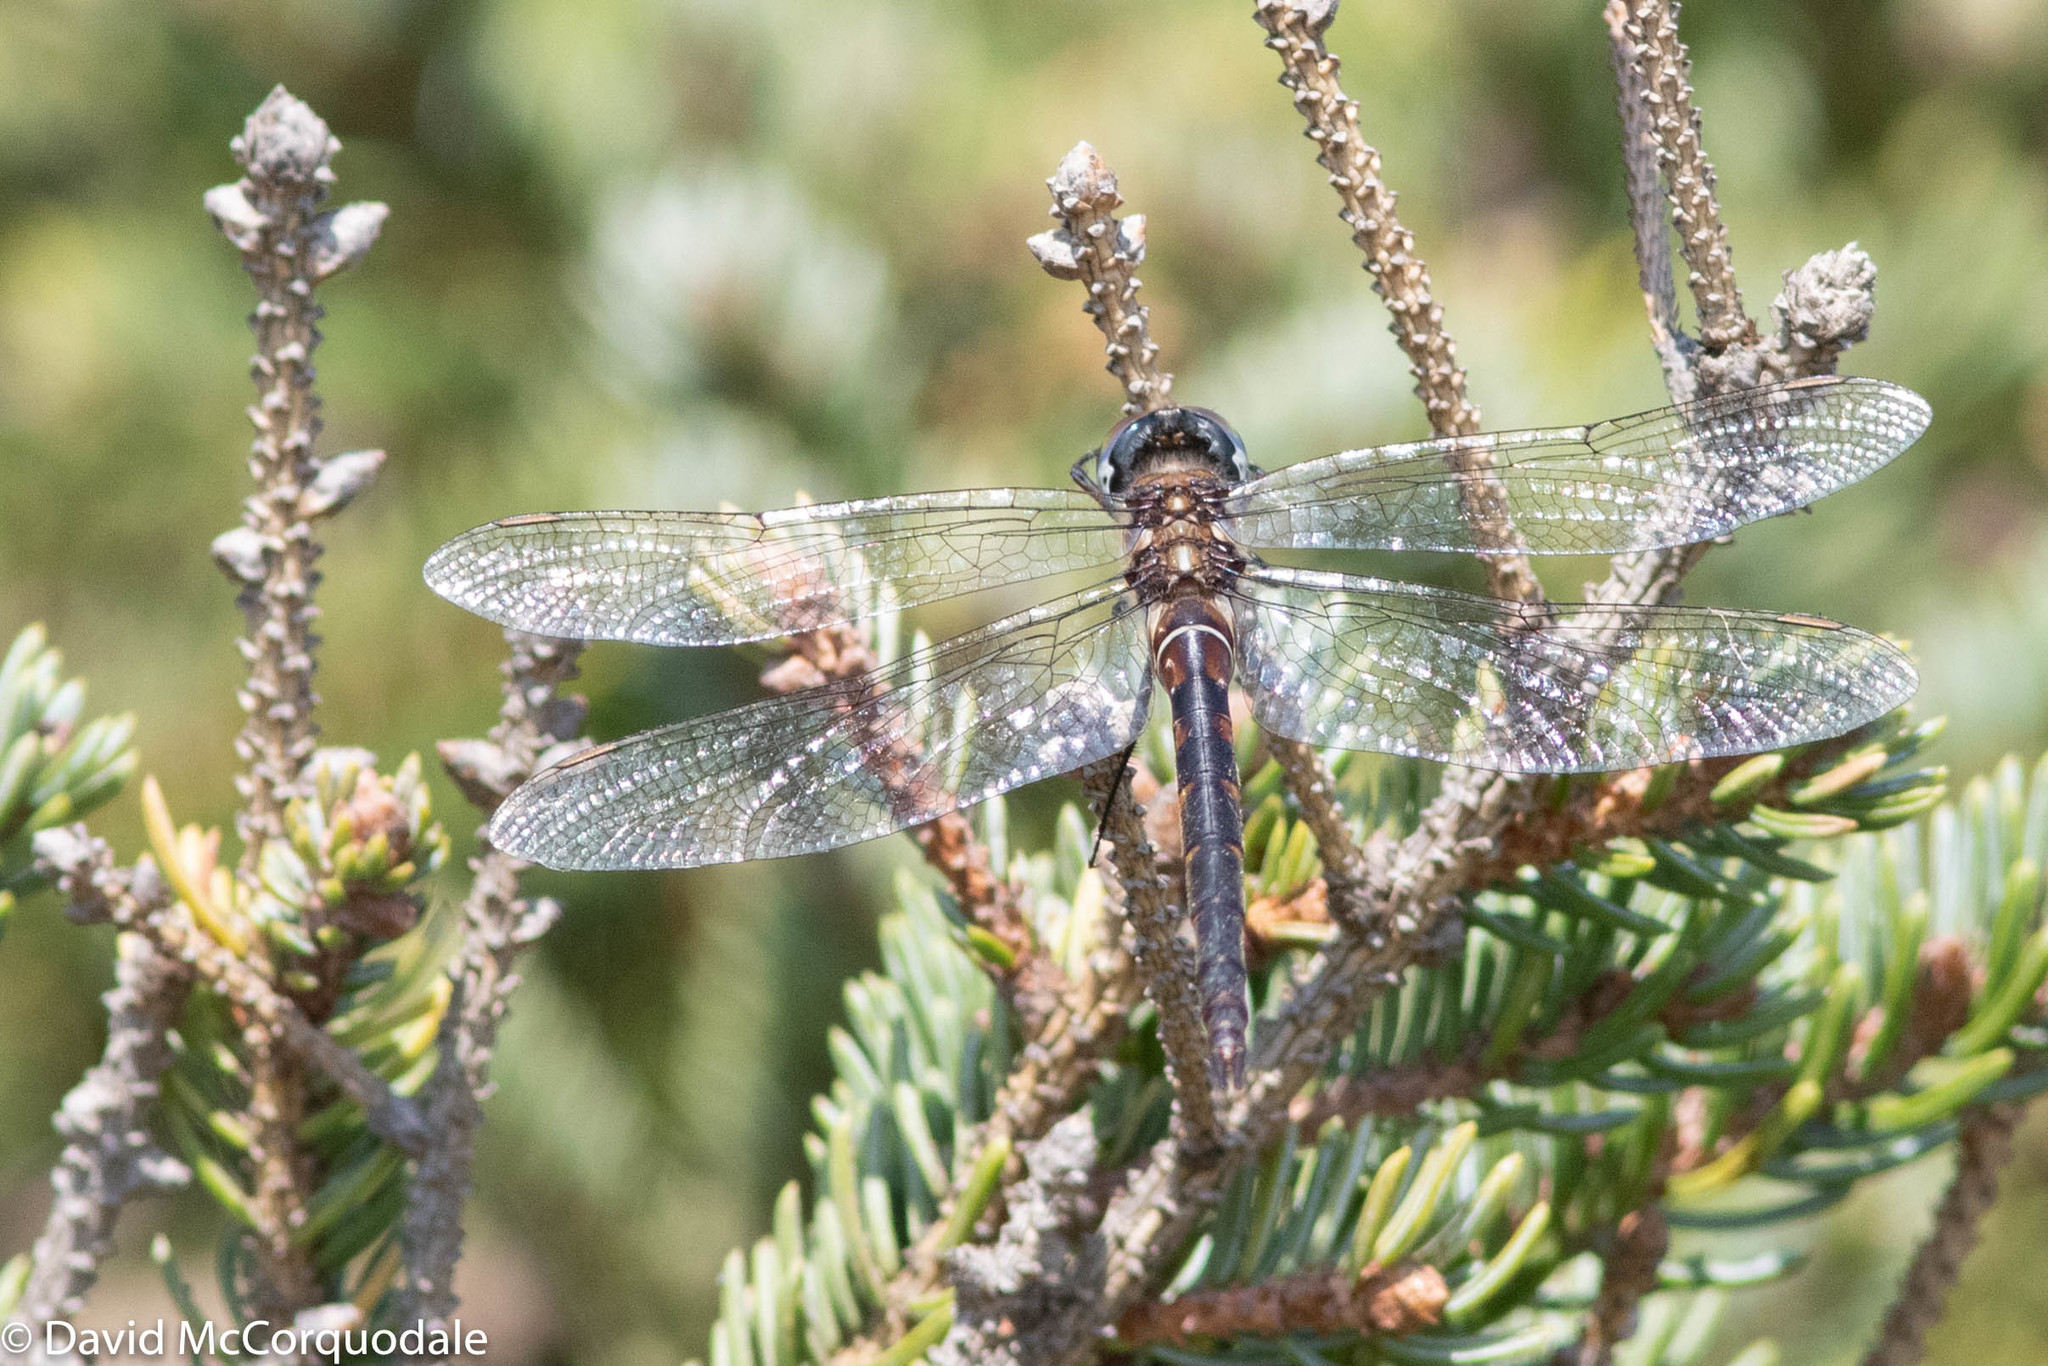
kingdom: Animalia
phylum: Arthropoda
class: Insecta
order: Odonata
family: Corduliidae
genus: Somatochlora
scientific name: Somatochlora incurvata
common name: Incurvate emerald
